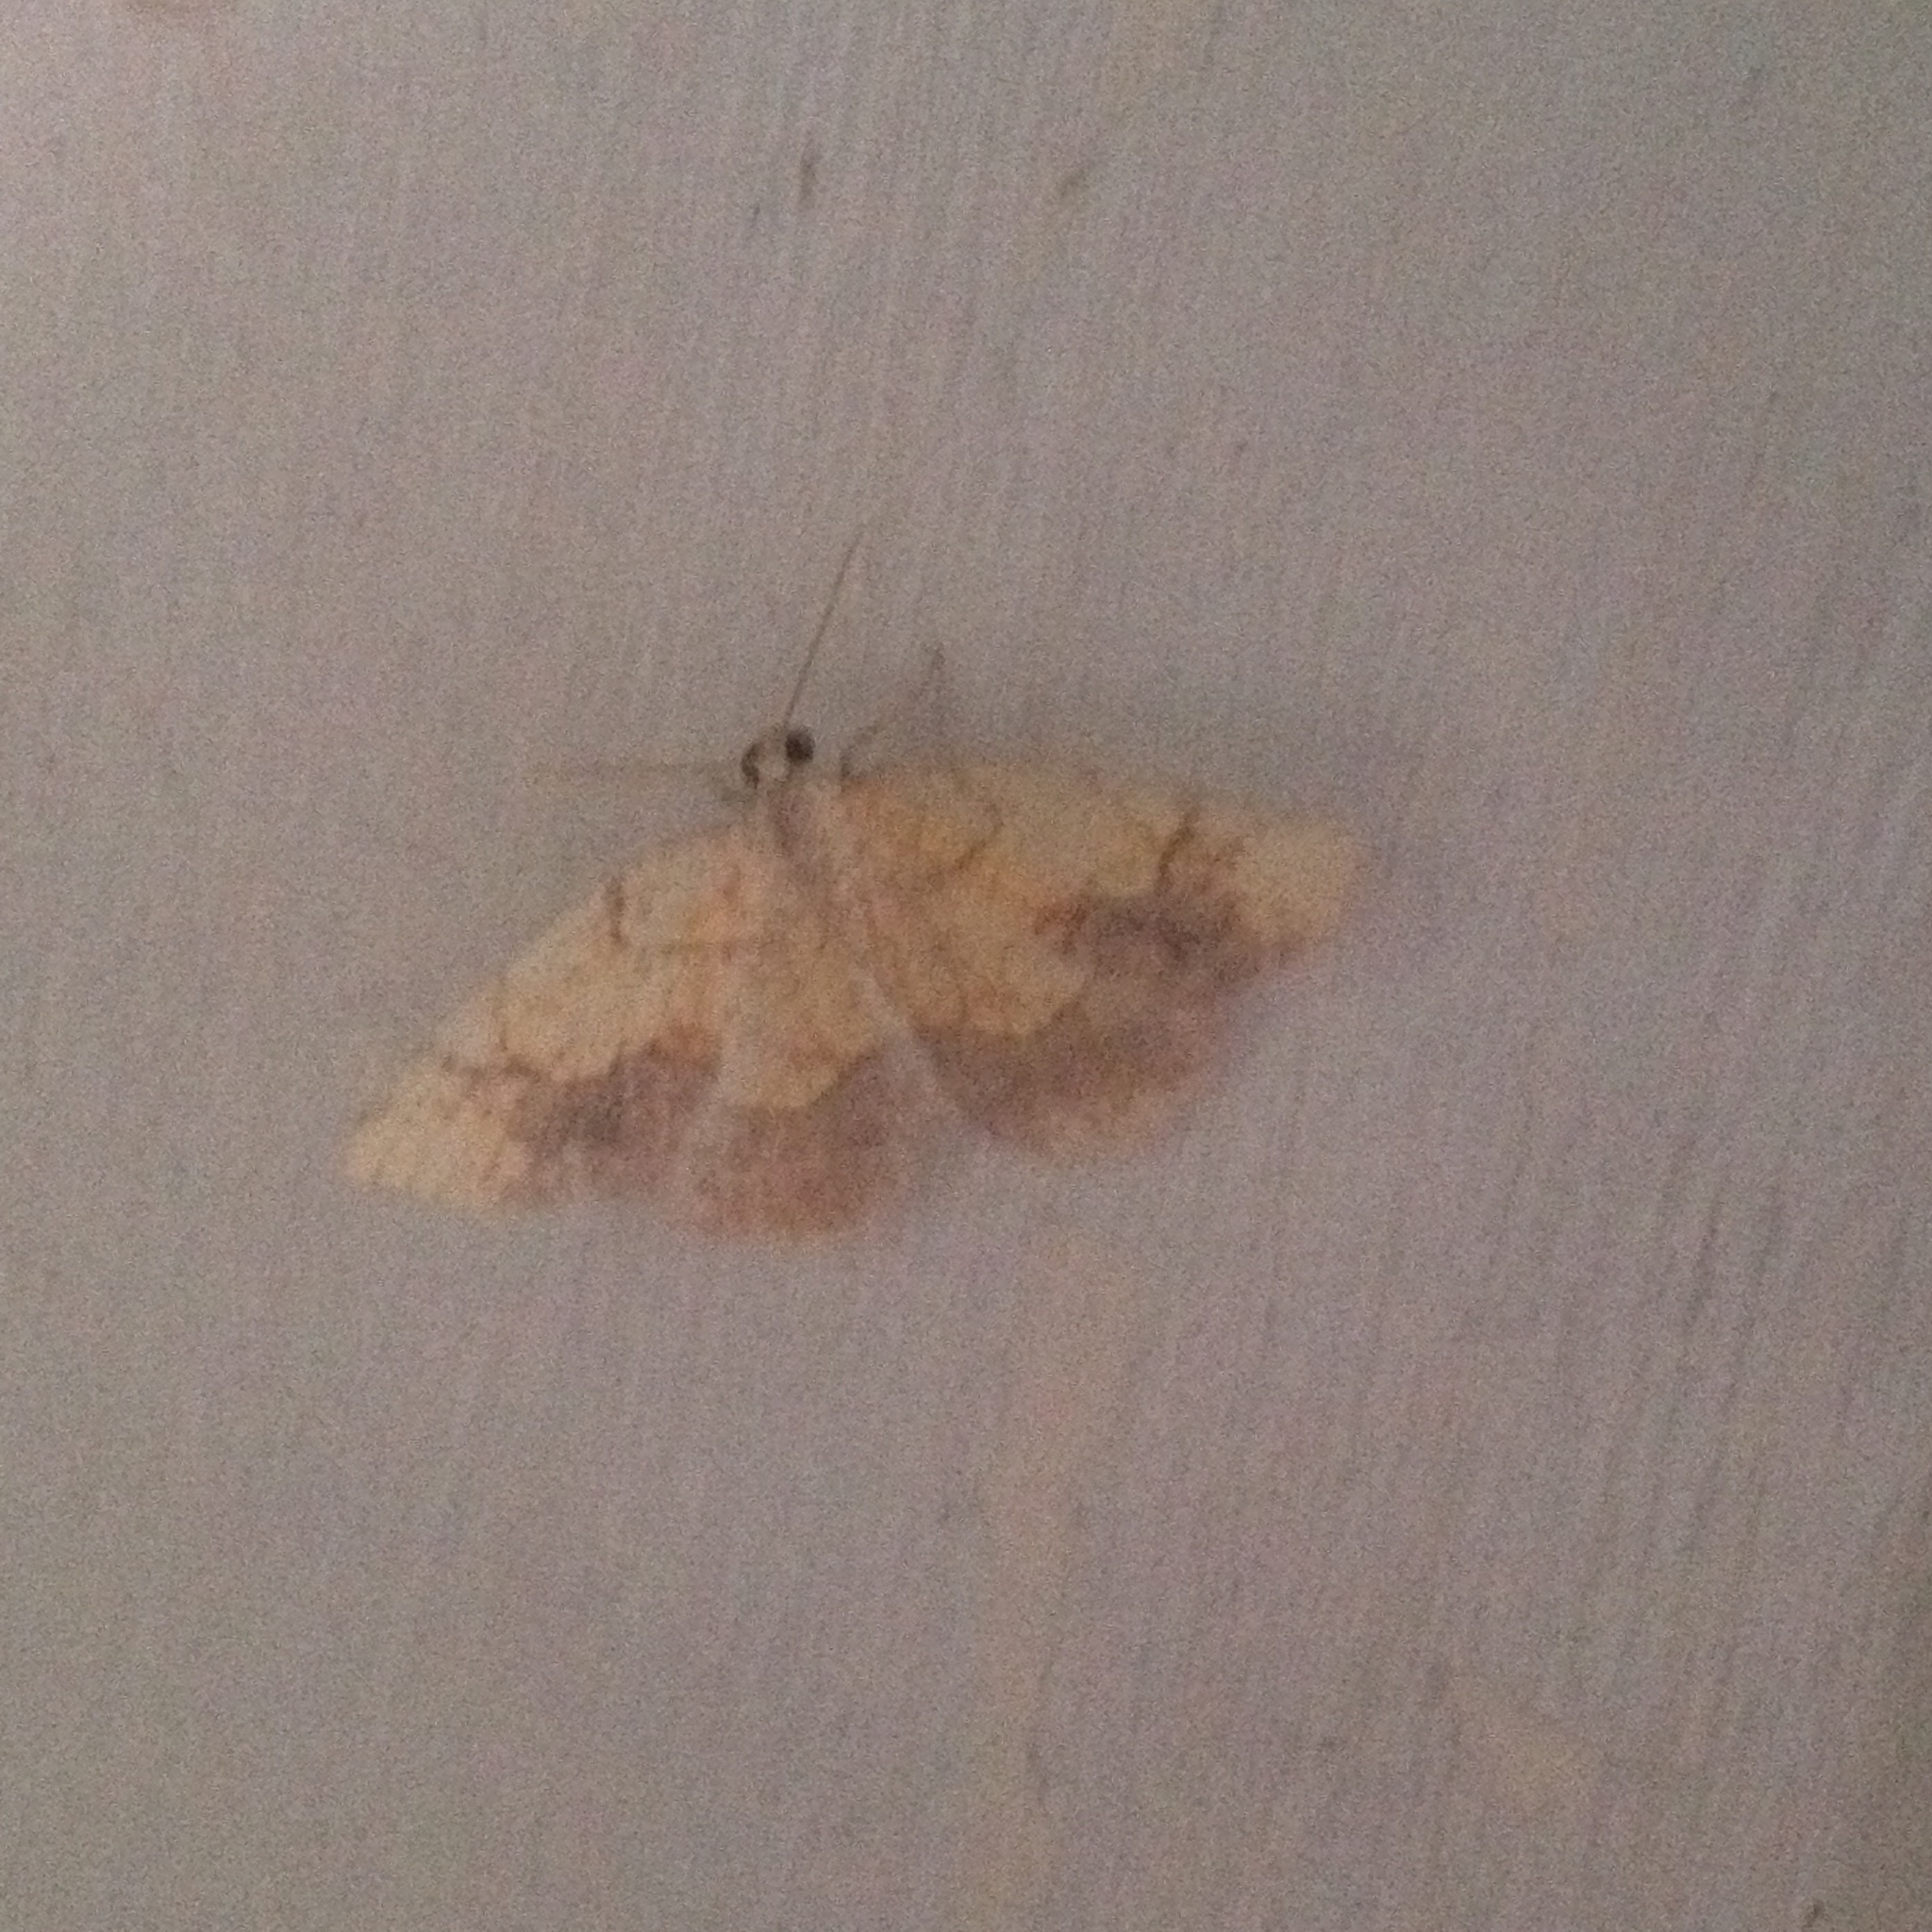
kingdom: Animalia
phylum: Arthropoda
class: Insecta
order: Lepidoptera
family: Geometridae
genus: Nematocampa
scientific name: Nematocampa resistaria
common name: Horned spanworm moth
